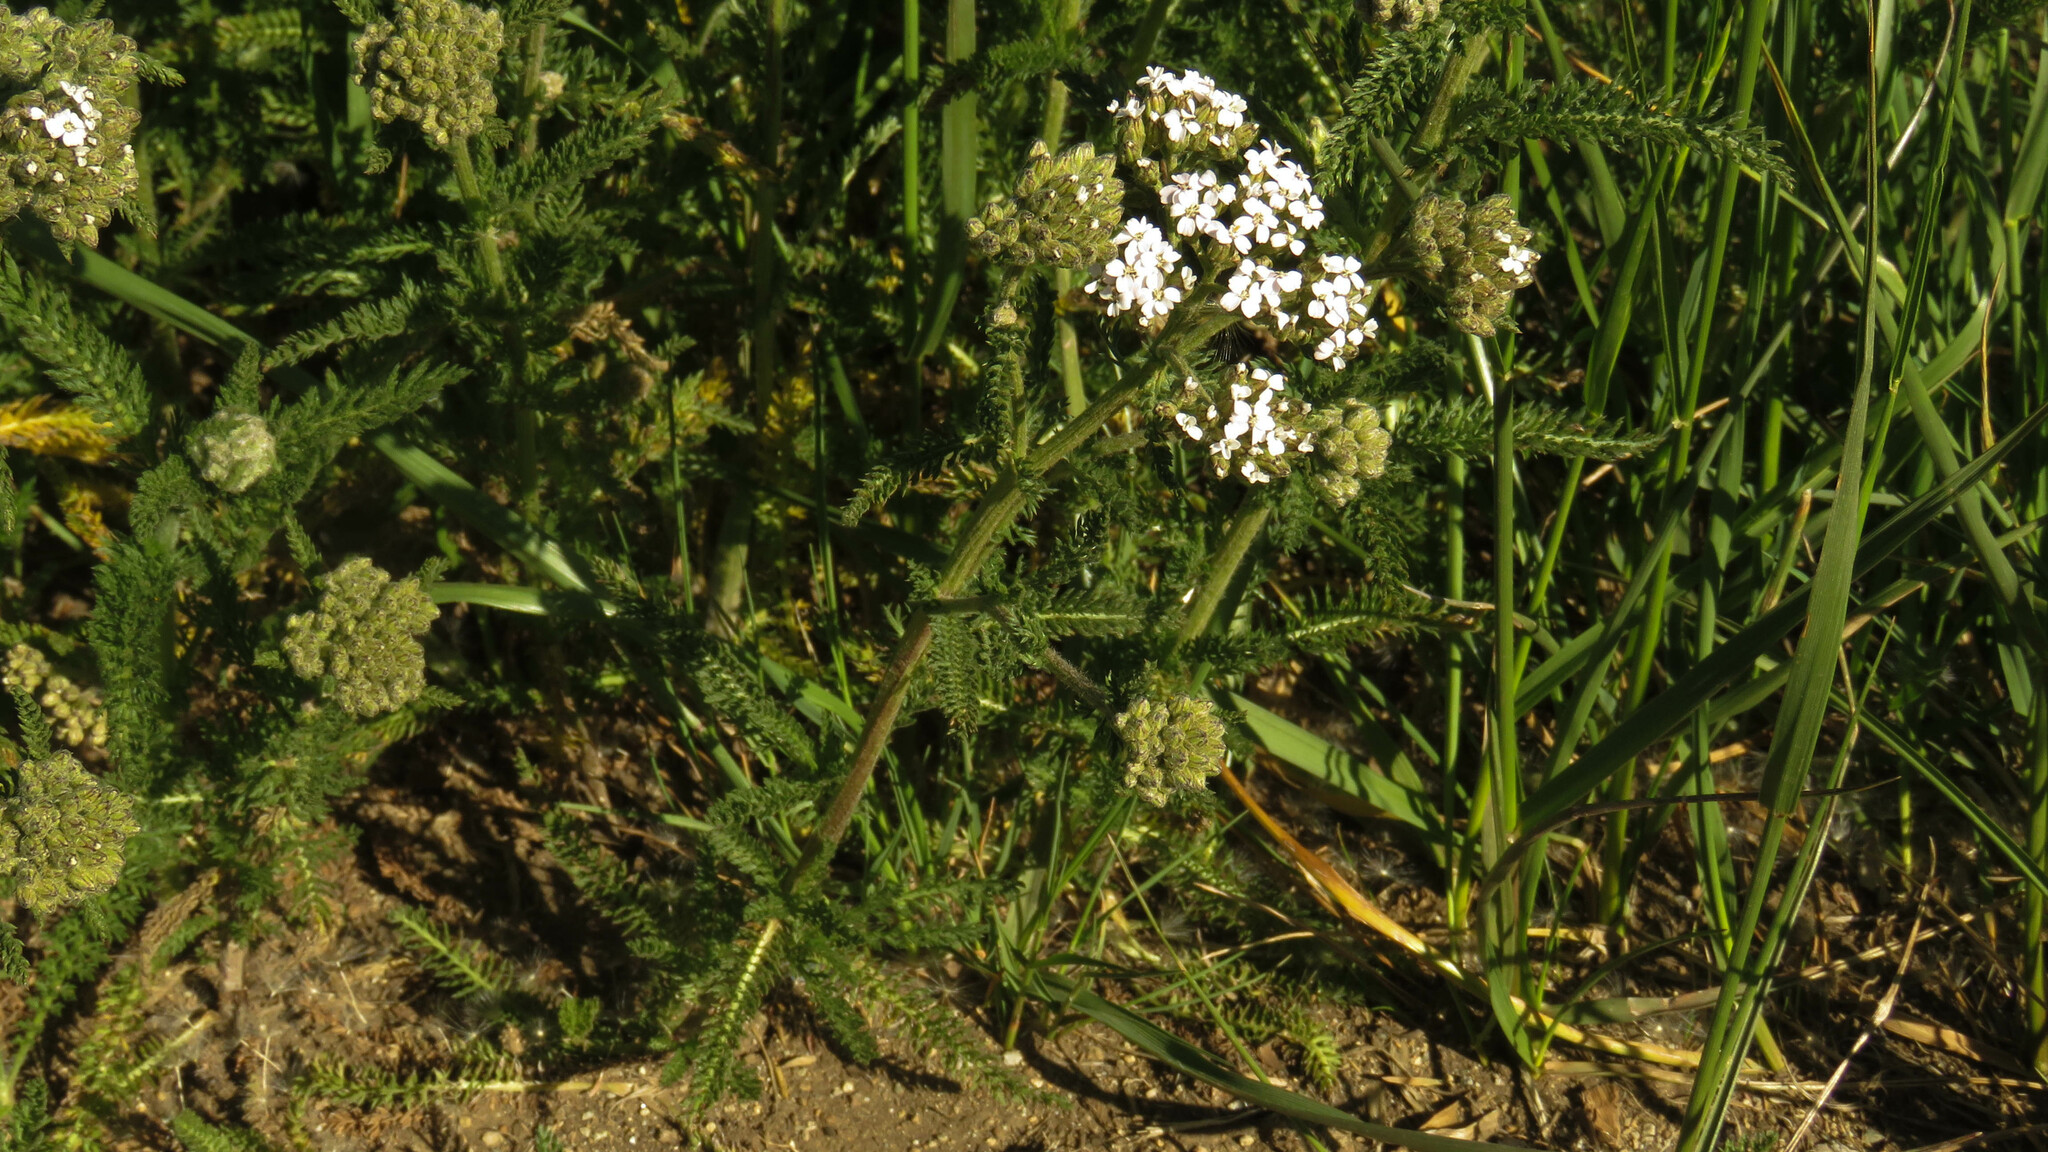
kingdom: Plantae
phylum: Tracheophyta
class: Magnoliopsida
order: Asterales
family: Asteraceae
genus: Achillea
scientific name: Achillea millefolium
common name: Yarrow
